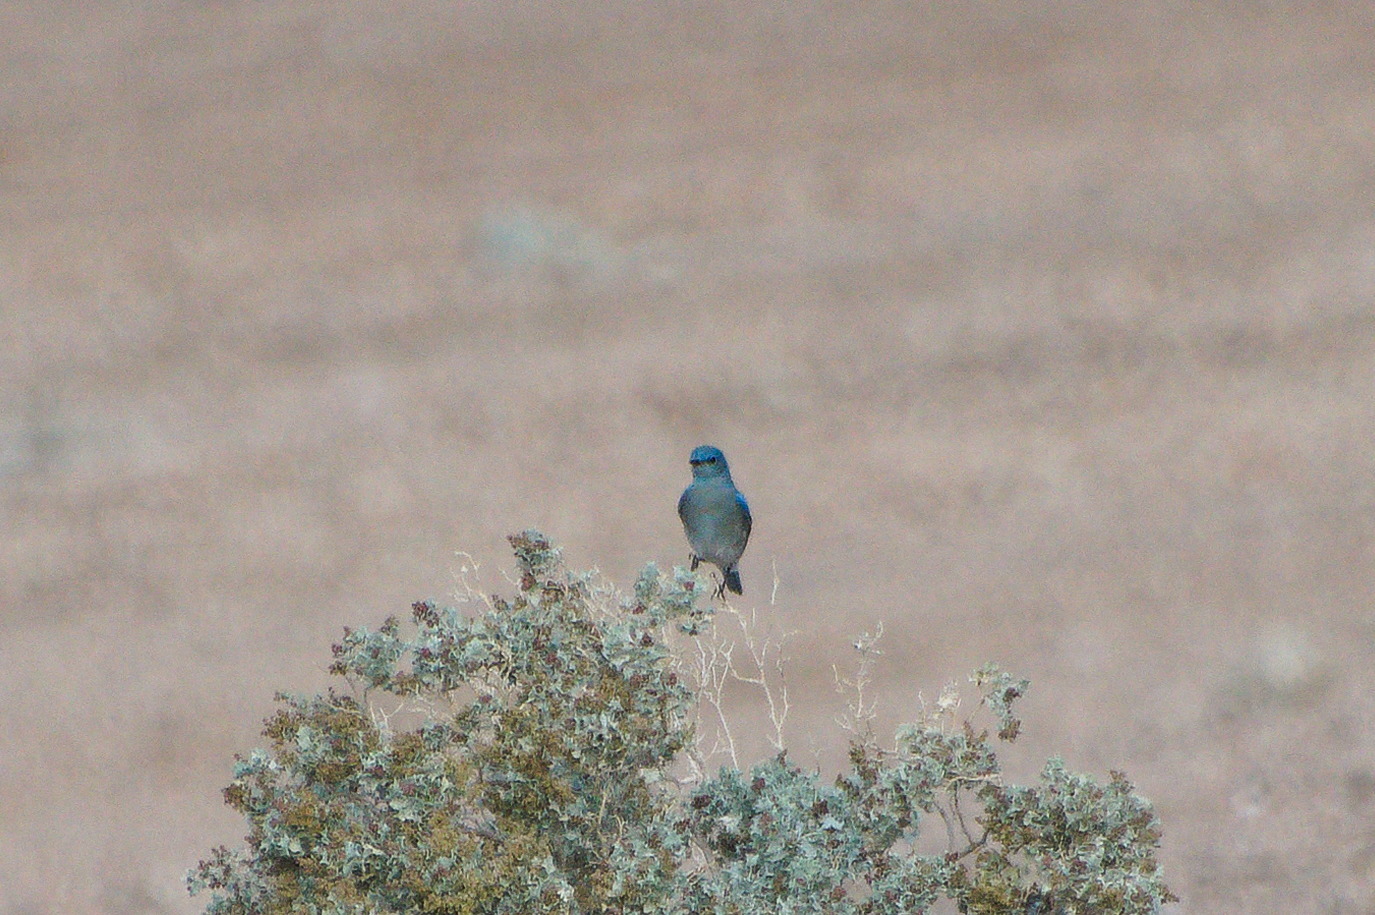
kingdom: Animalia
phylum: Chordata
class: Aves
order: Passeriformes
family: Turdidae
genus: Sialia
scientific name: Sialia currucoides
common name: Mountain bluebird
